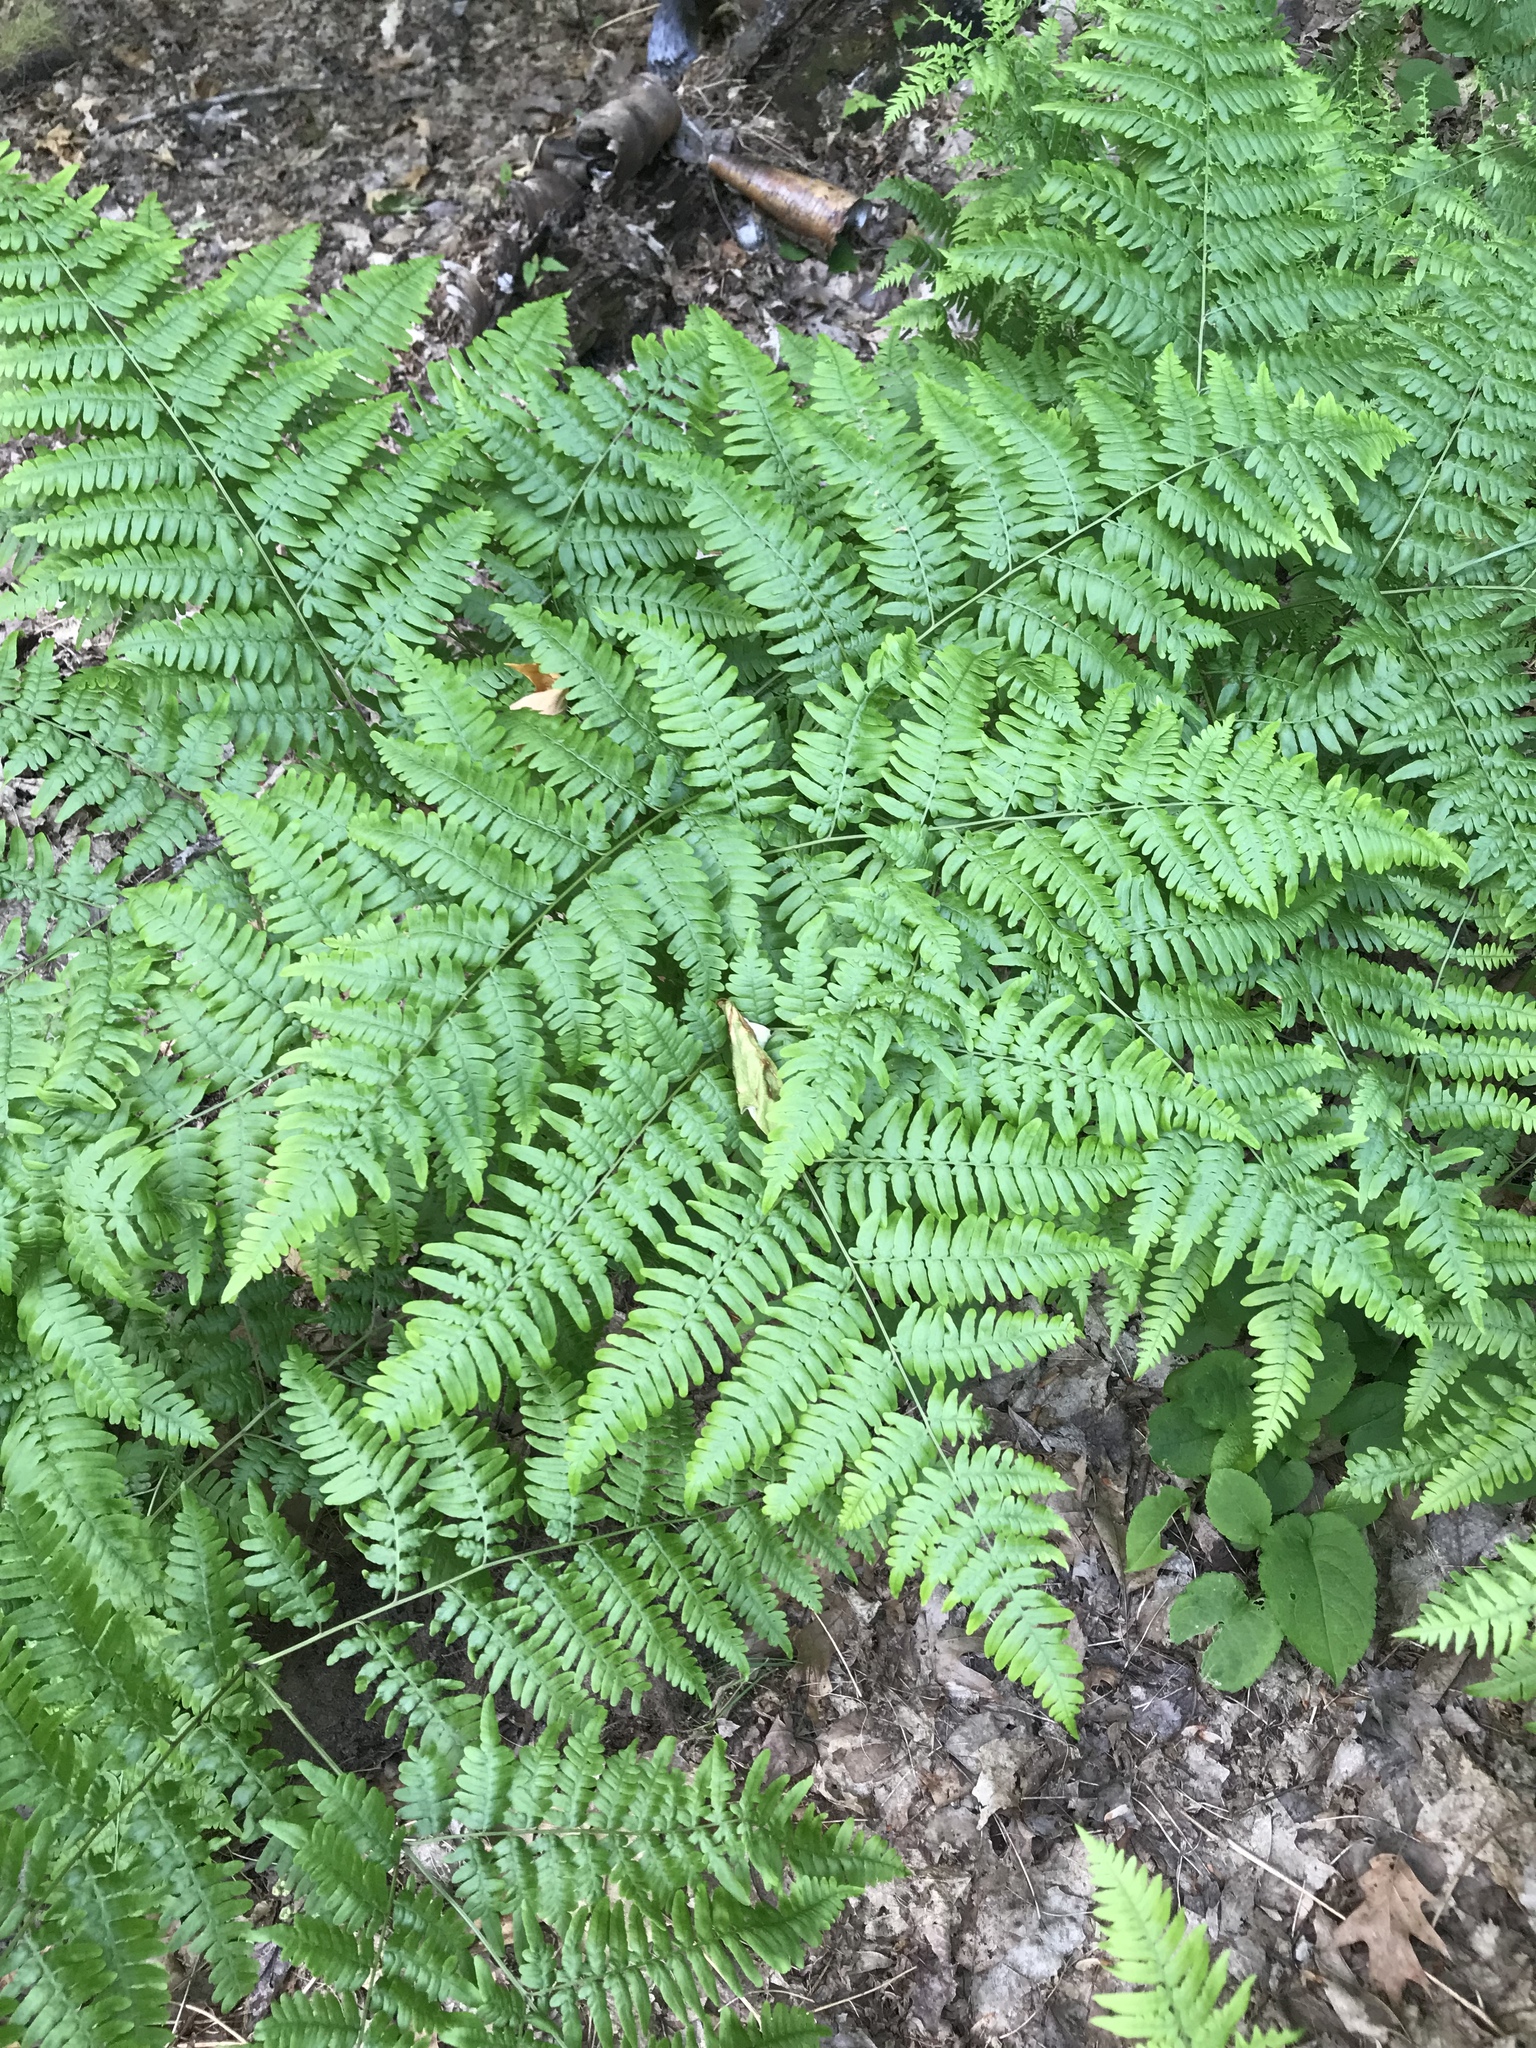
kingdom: Plantae
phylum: Tracheophyta
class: Polypodiopsida
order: Polypodiales
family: Dennstaedtiaceae
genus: Pteridium
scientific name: Pteridium aquilinum
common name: Bracken
